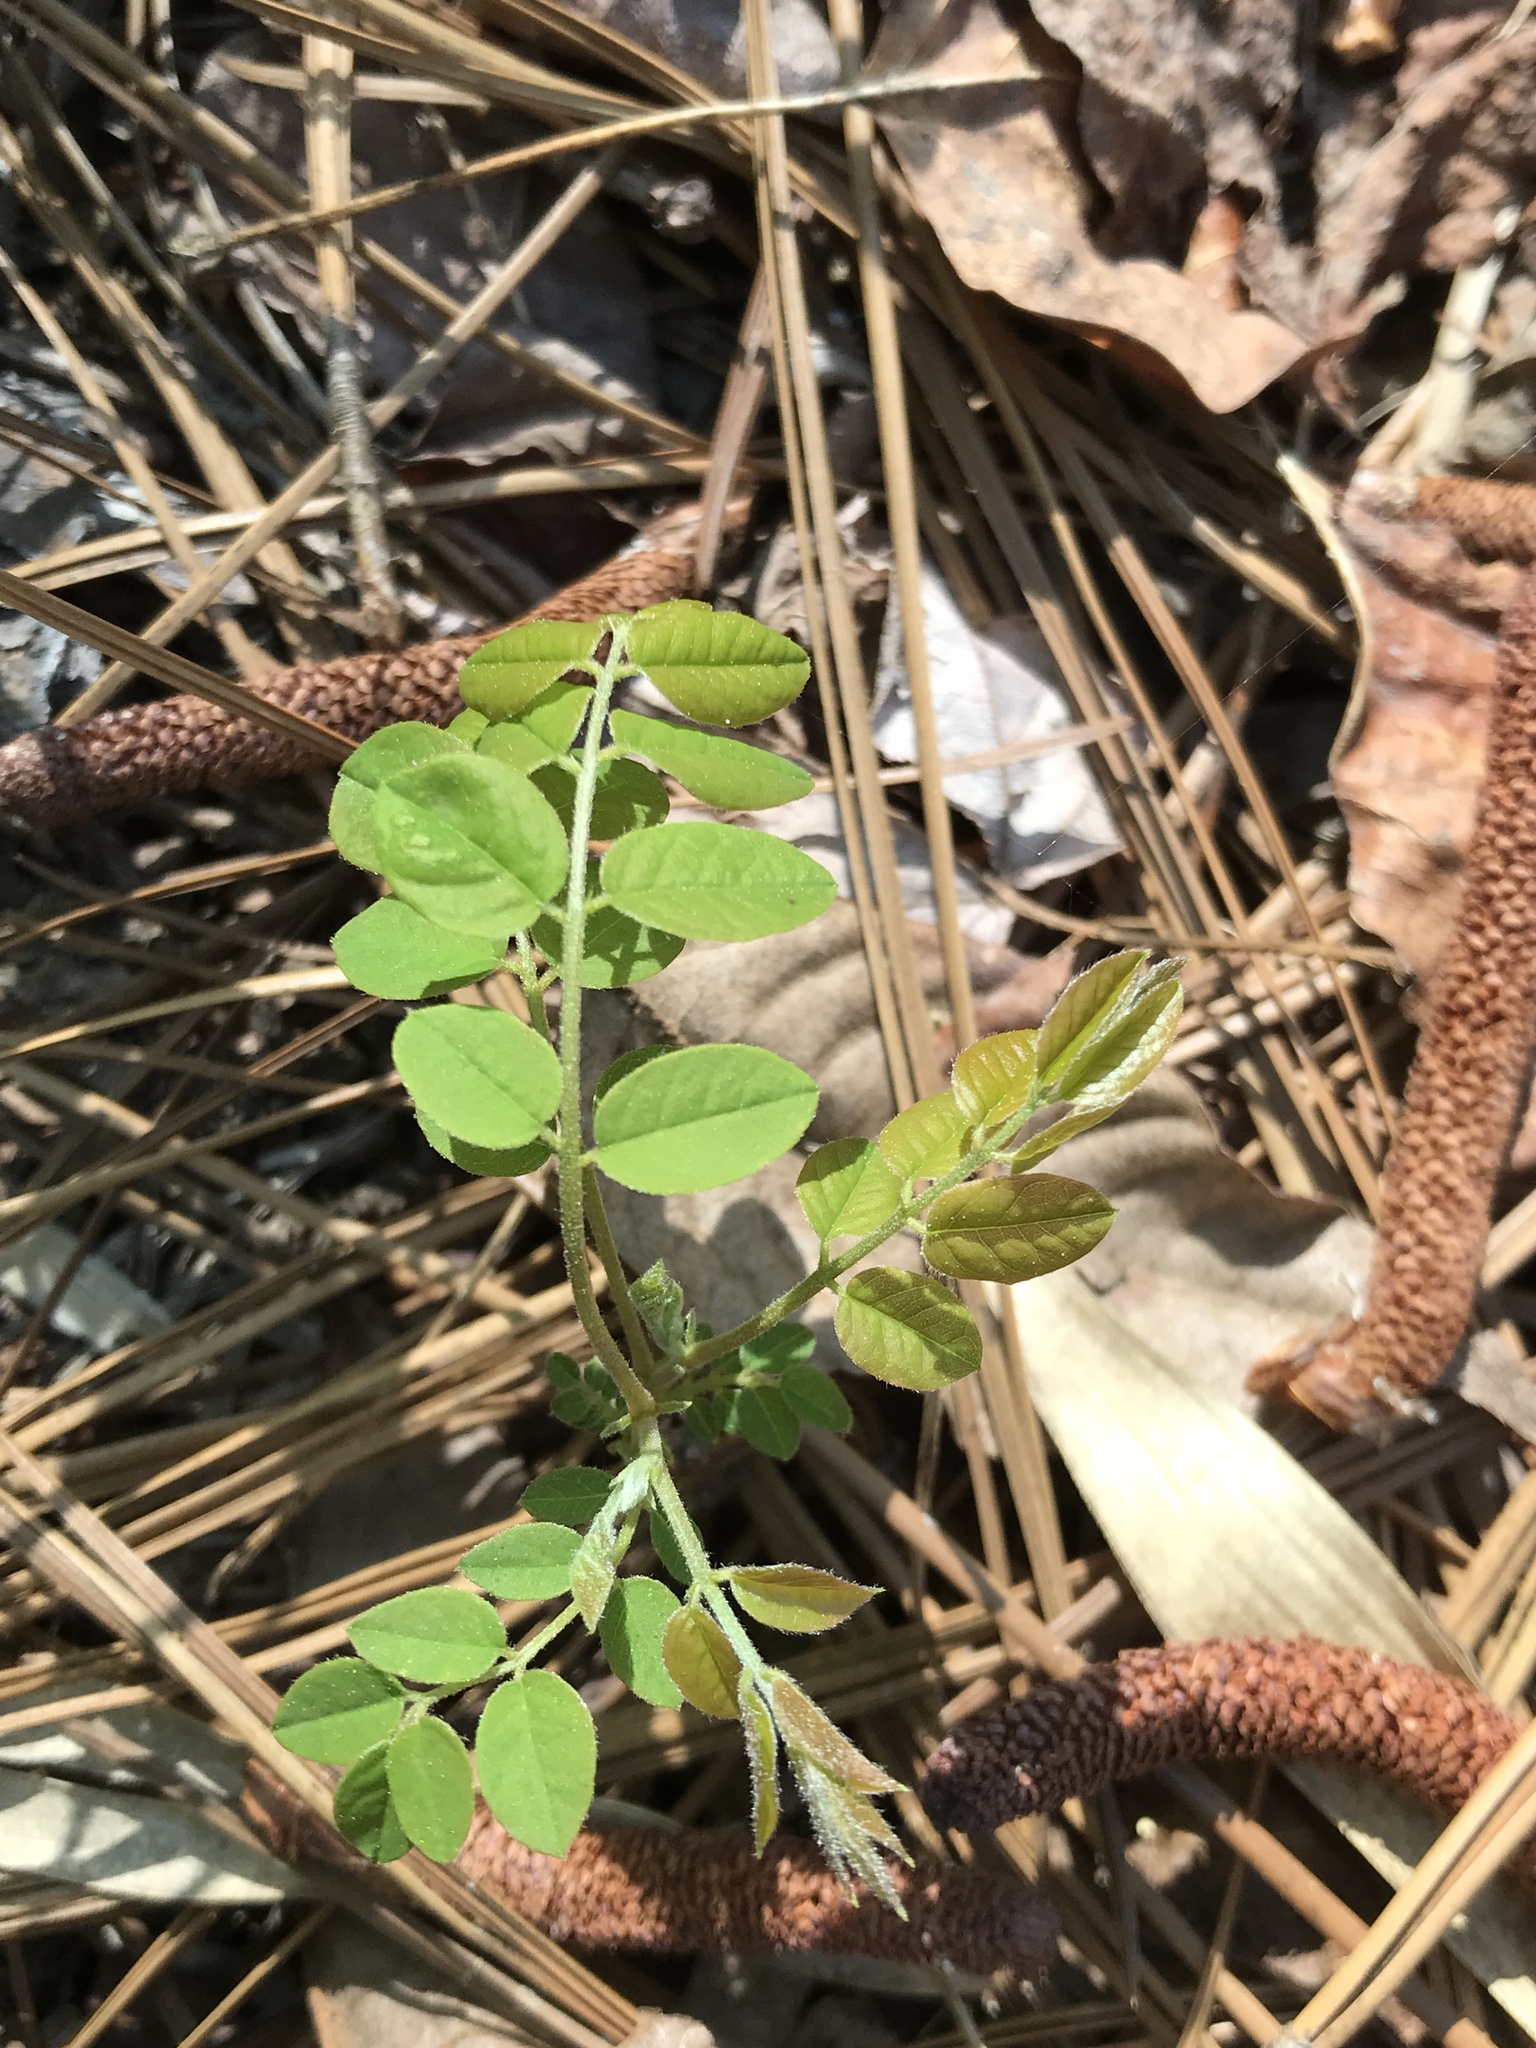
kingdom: Plantae
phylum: Tracheophyta
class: Magnoliopsida
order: Fabales
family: Fabaceae
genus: Robinia
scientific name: Robinia hispida
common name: Bristly locust
